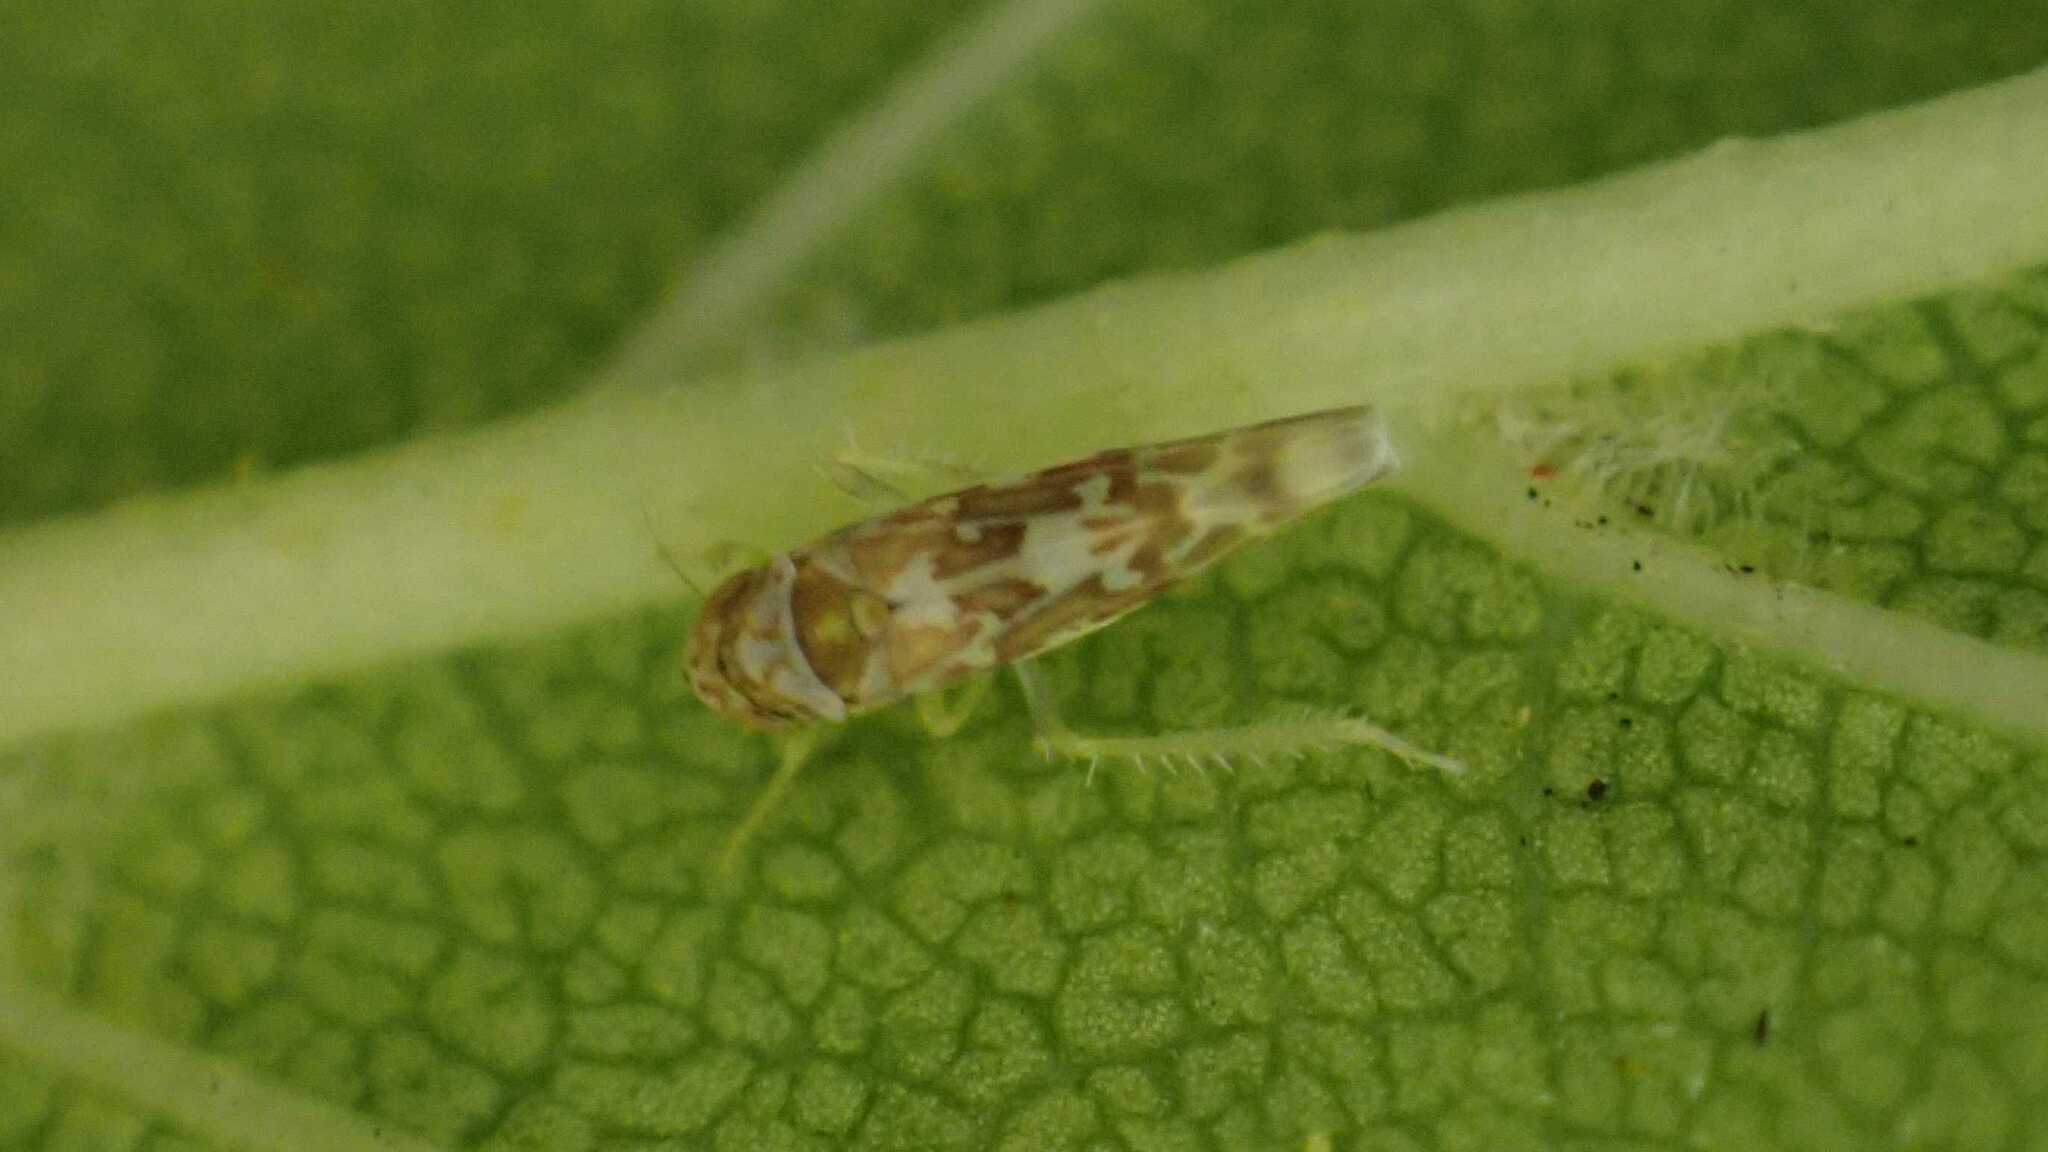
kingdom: Animalia
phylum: Arthropoda
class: Insecta
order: Hemiptera
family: Cicadellidae
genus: Tautoneura
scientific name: Tautoneura polymitusa
